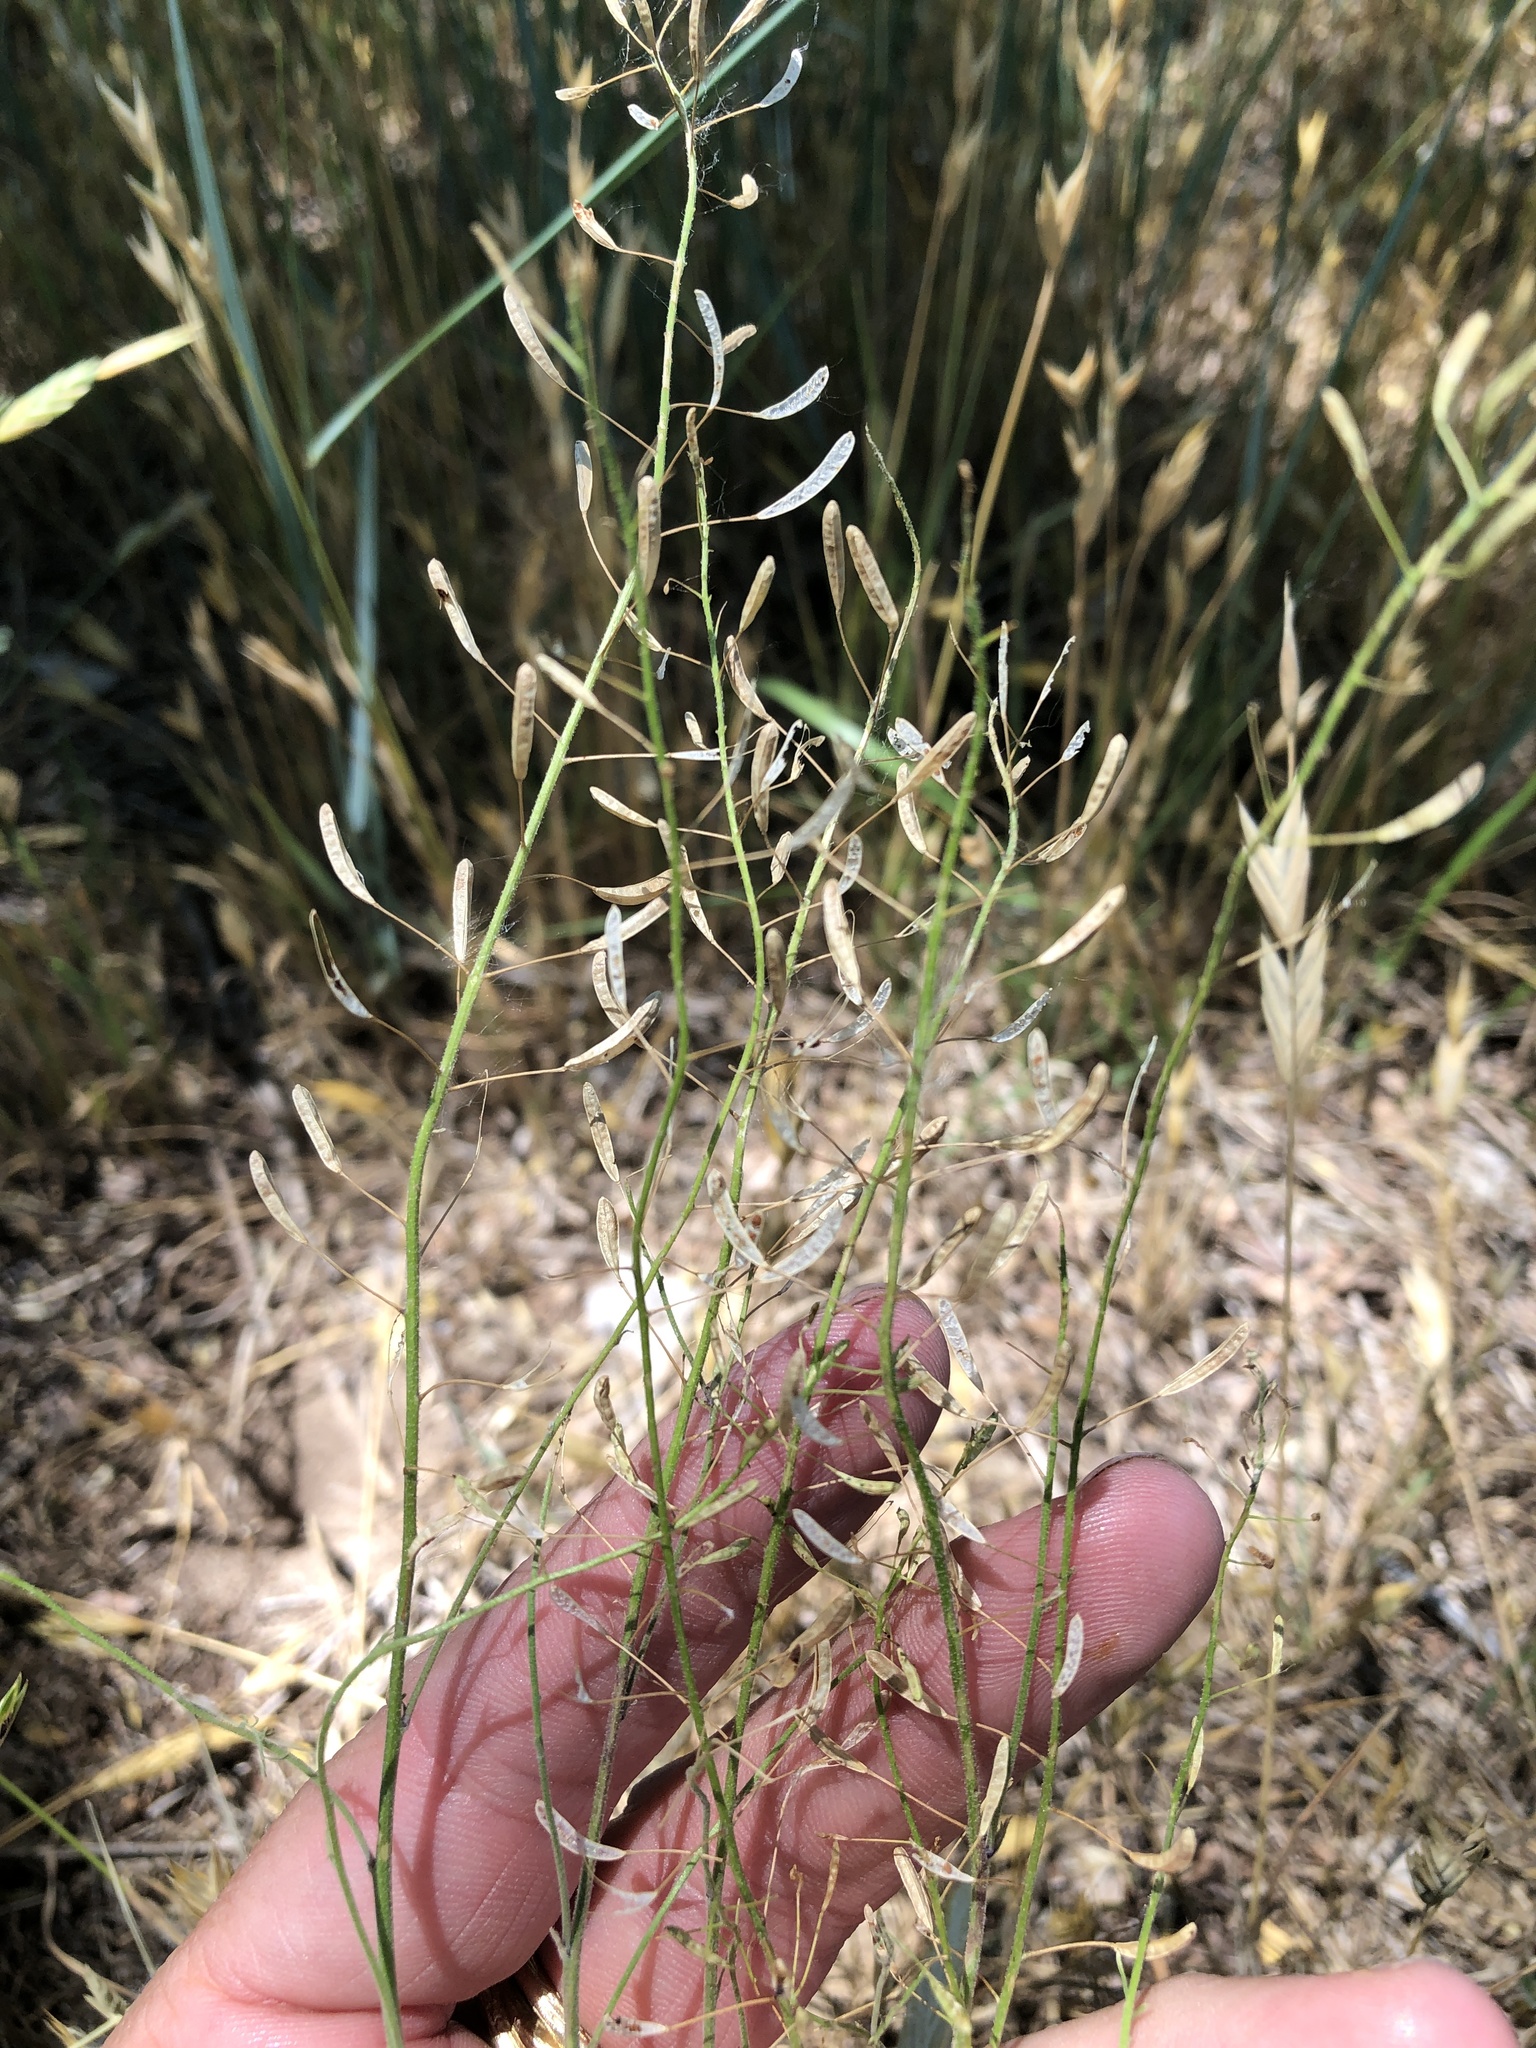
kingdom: Plantae
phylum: Tracheophyta
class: Magnoliopsida
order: Brassicales
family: Brassicaceae
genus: Descurainia
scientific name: Descurainia pinnata
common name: Western tansy mustard
